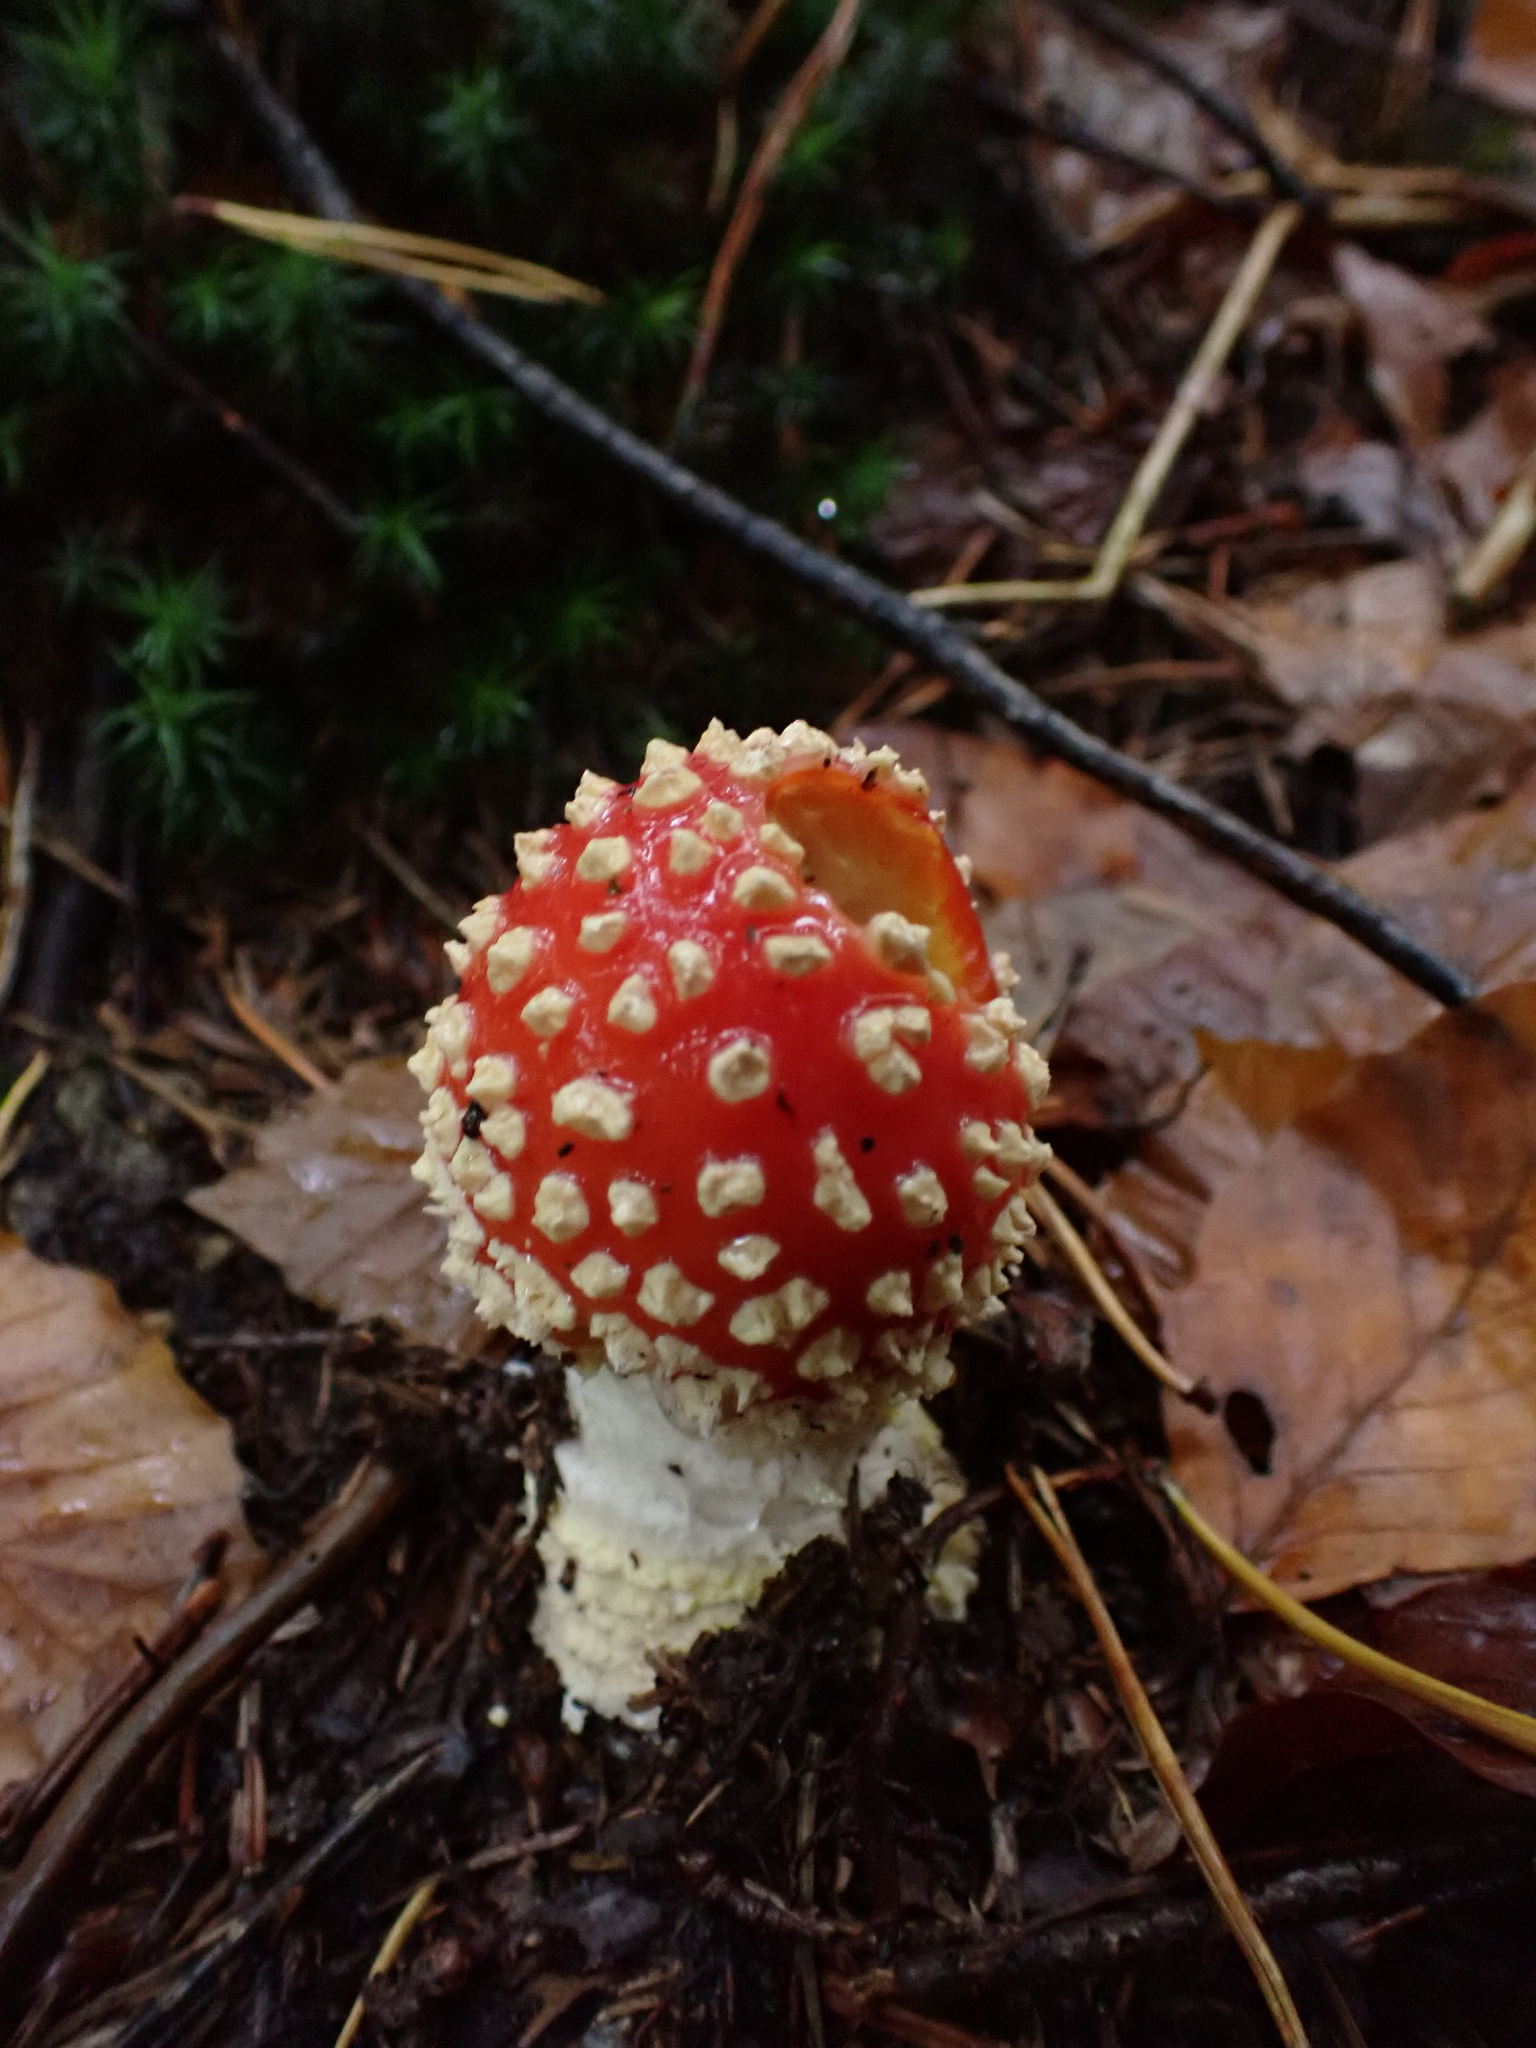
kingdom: Fungi
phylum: Basidiomycota
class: Agaricomycetes
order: Agaricales
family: Amanitaceae
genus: Amanita
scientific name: Amanita muscaria
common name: Fly agaric
